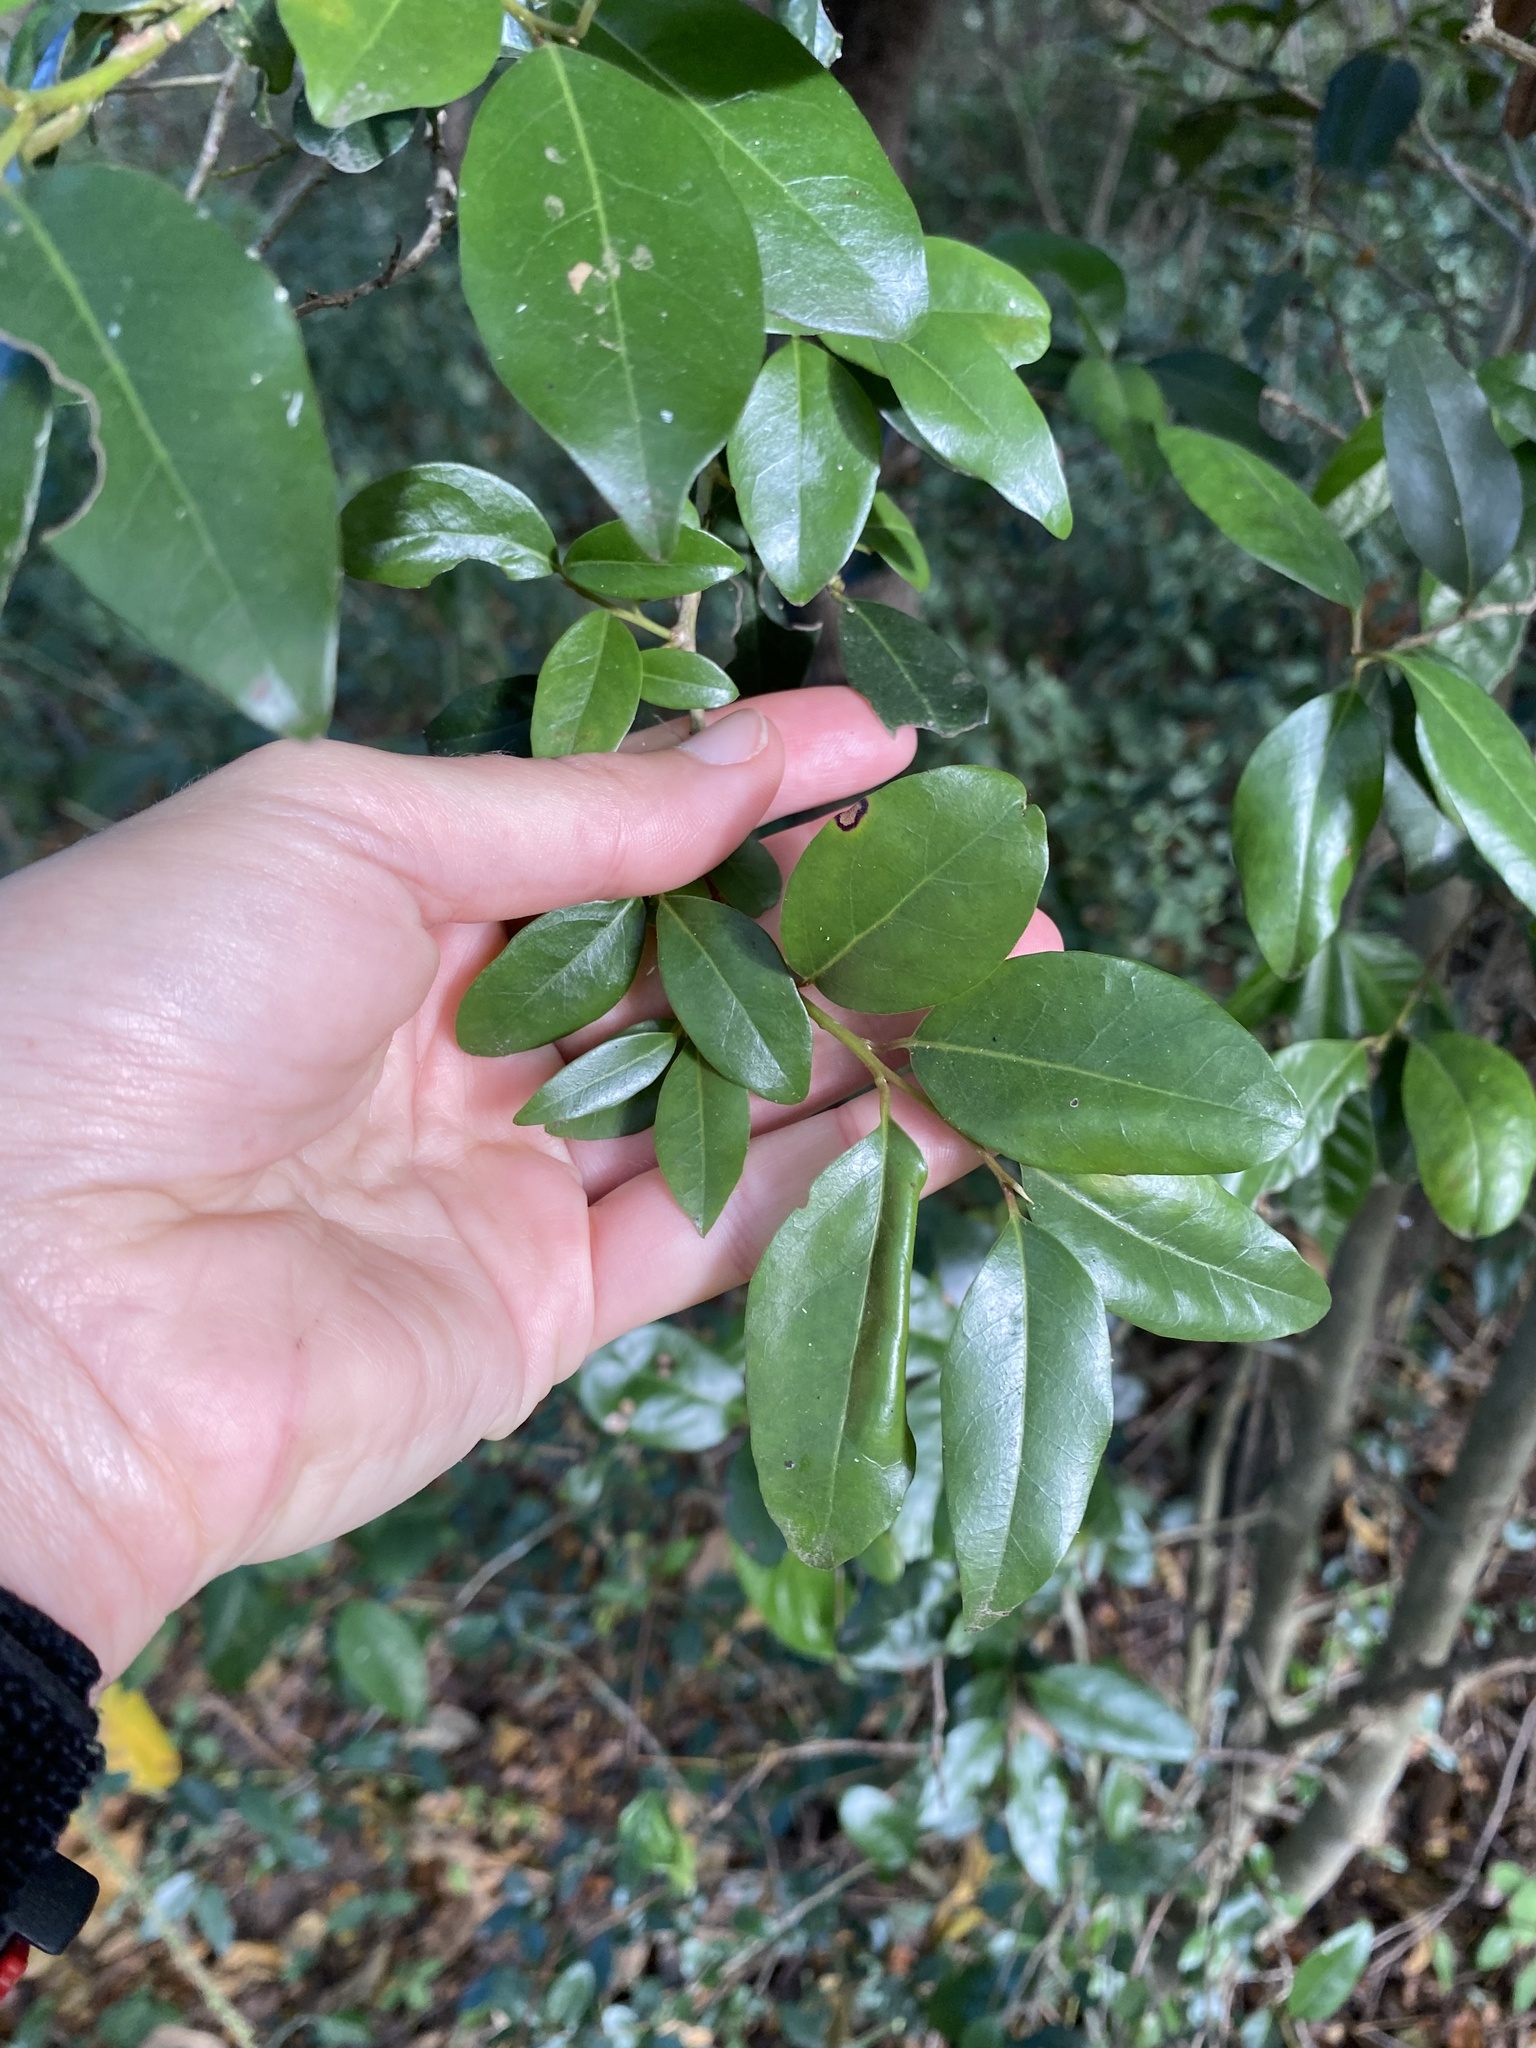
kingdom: Plantae
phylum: Tracheophyta
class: Magnoliopsida
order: Metteniusales
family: Metteniusaceae
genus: Apodytes
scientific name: Apodytes dimidiata
